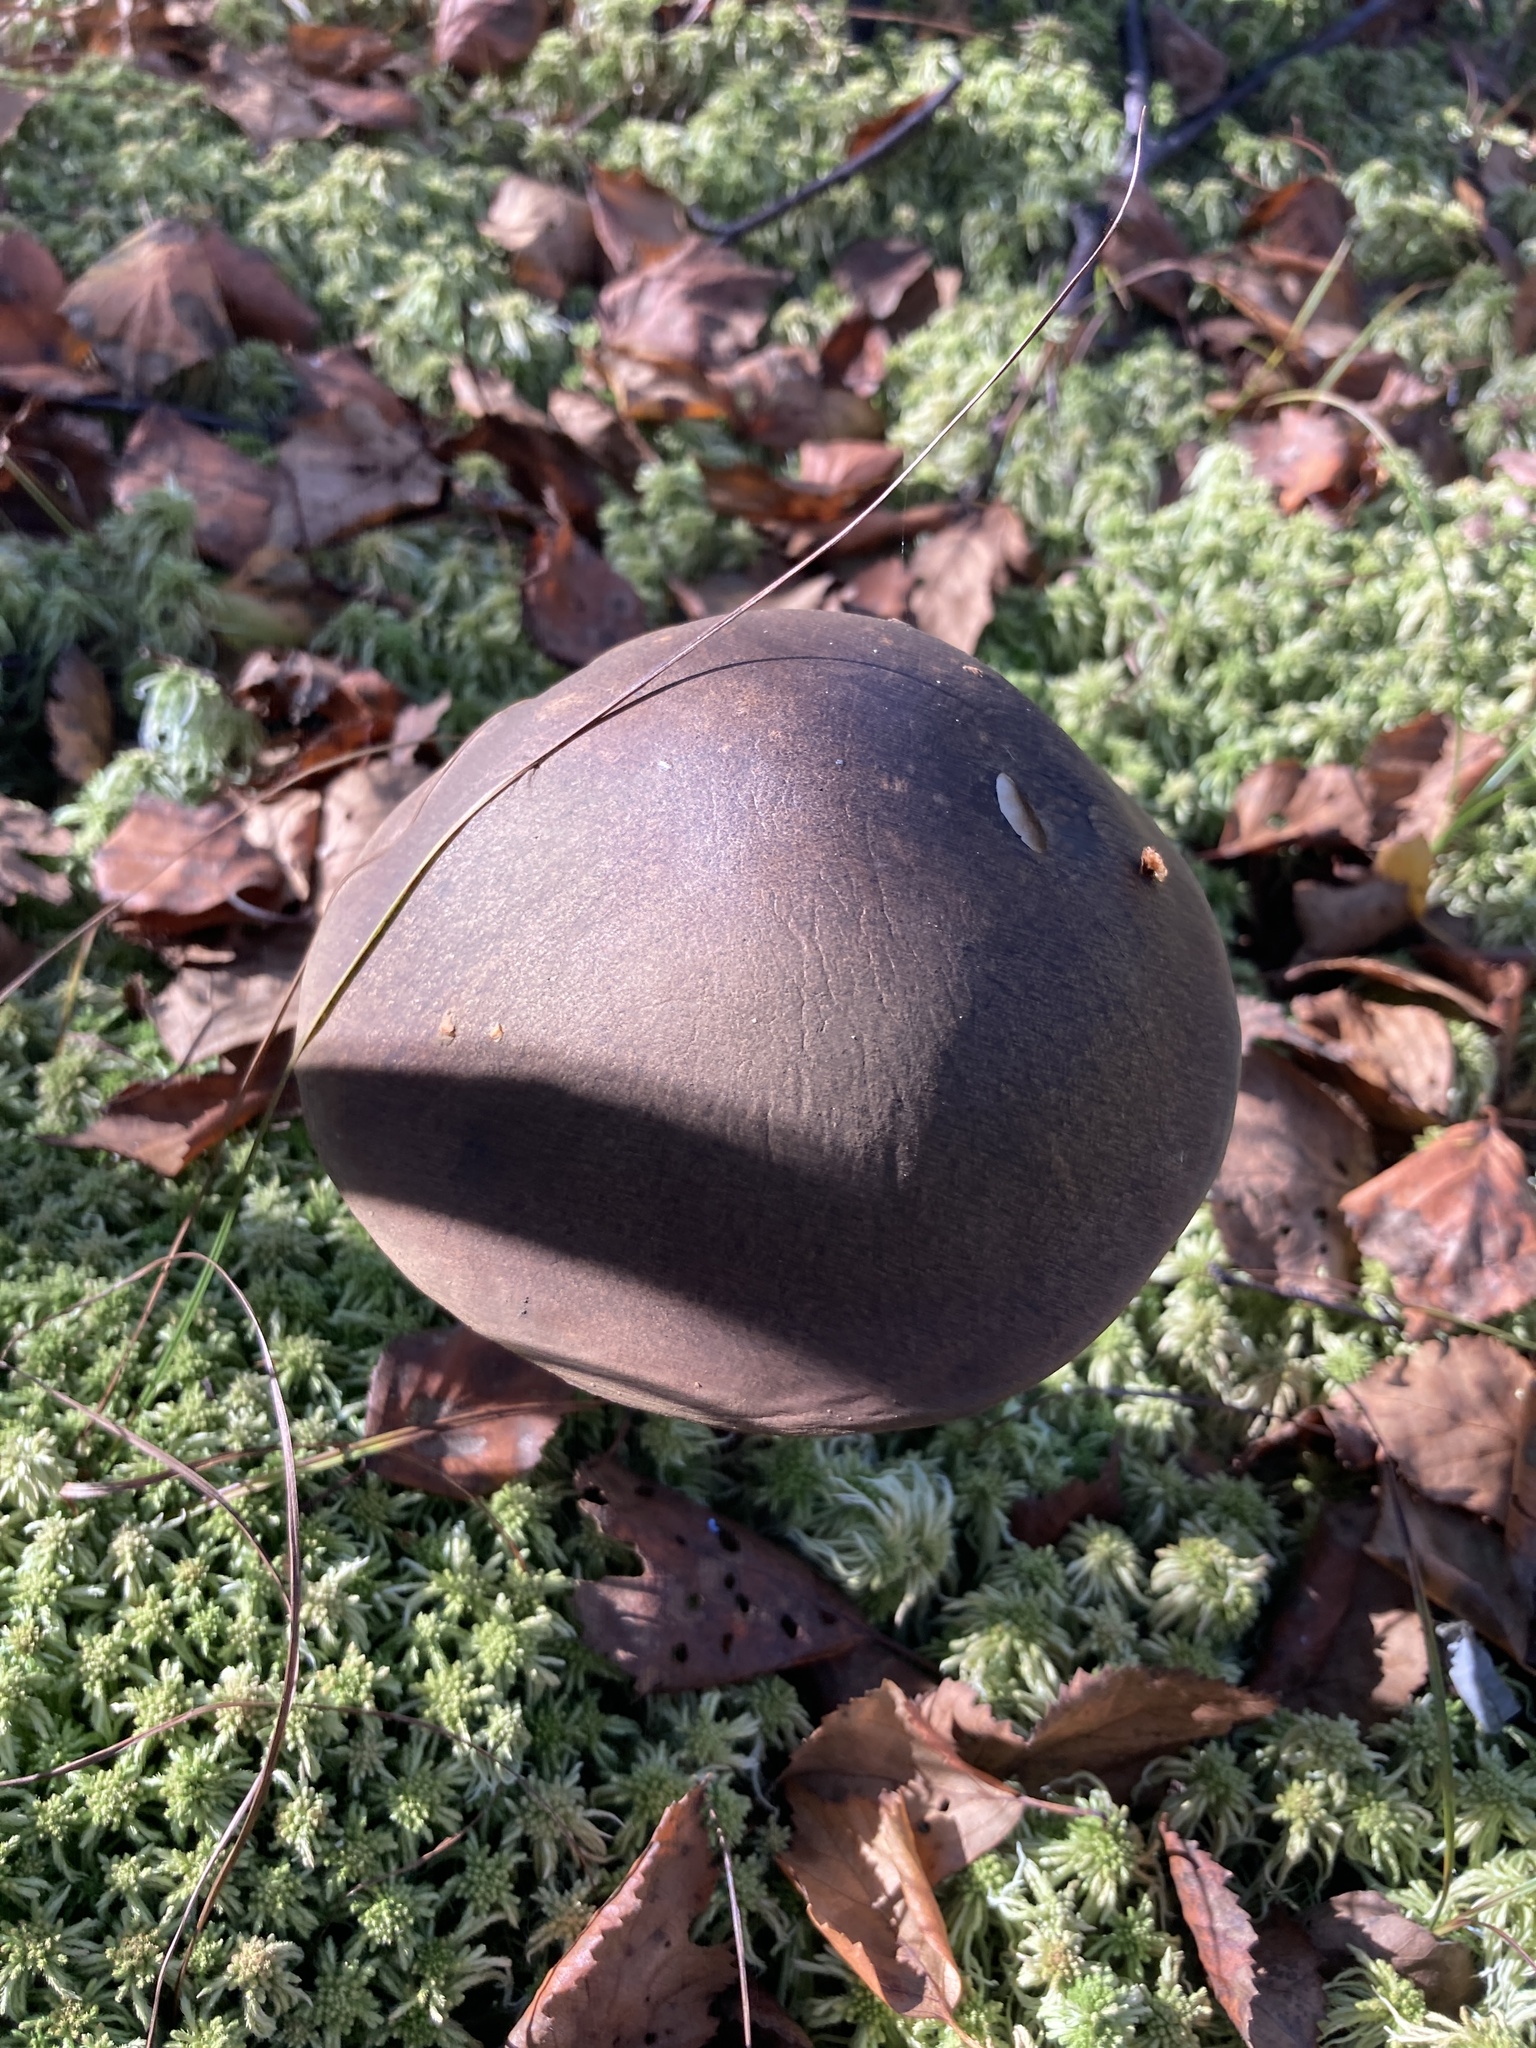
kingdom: Fungi
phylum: Basidiomycota
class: Agaricomycetes
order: Boletales
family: Boletaceae
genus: Leccinum
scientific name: Leccinum scabrum
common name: Blushing bolete
